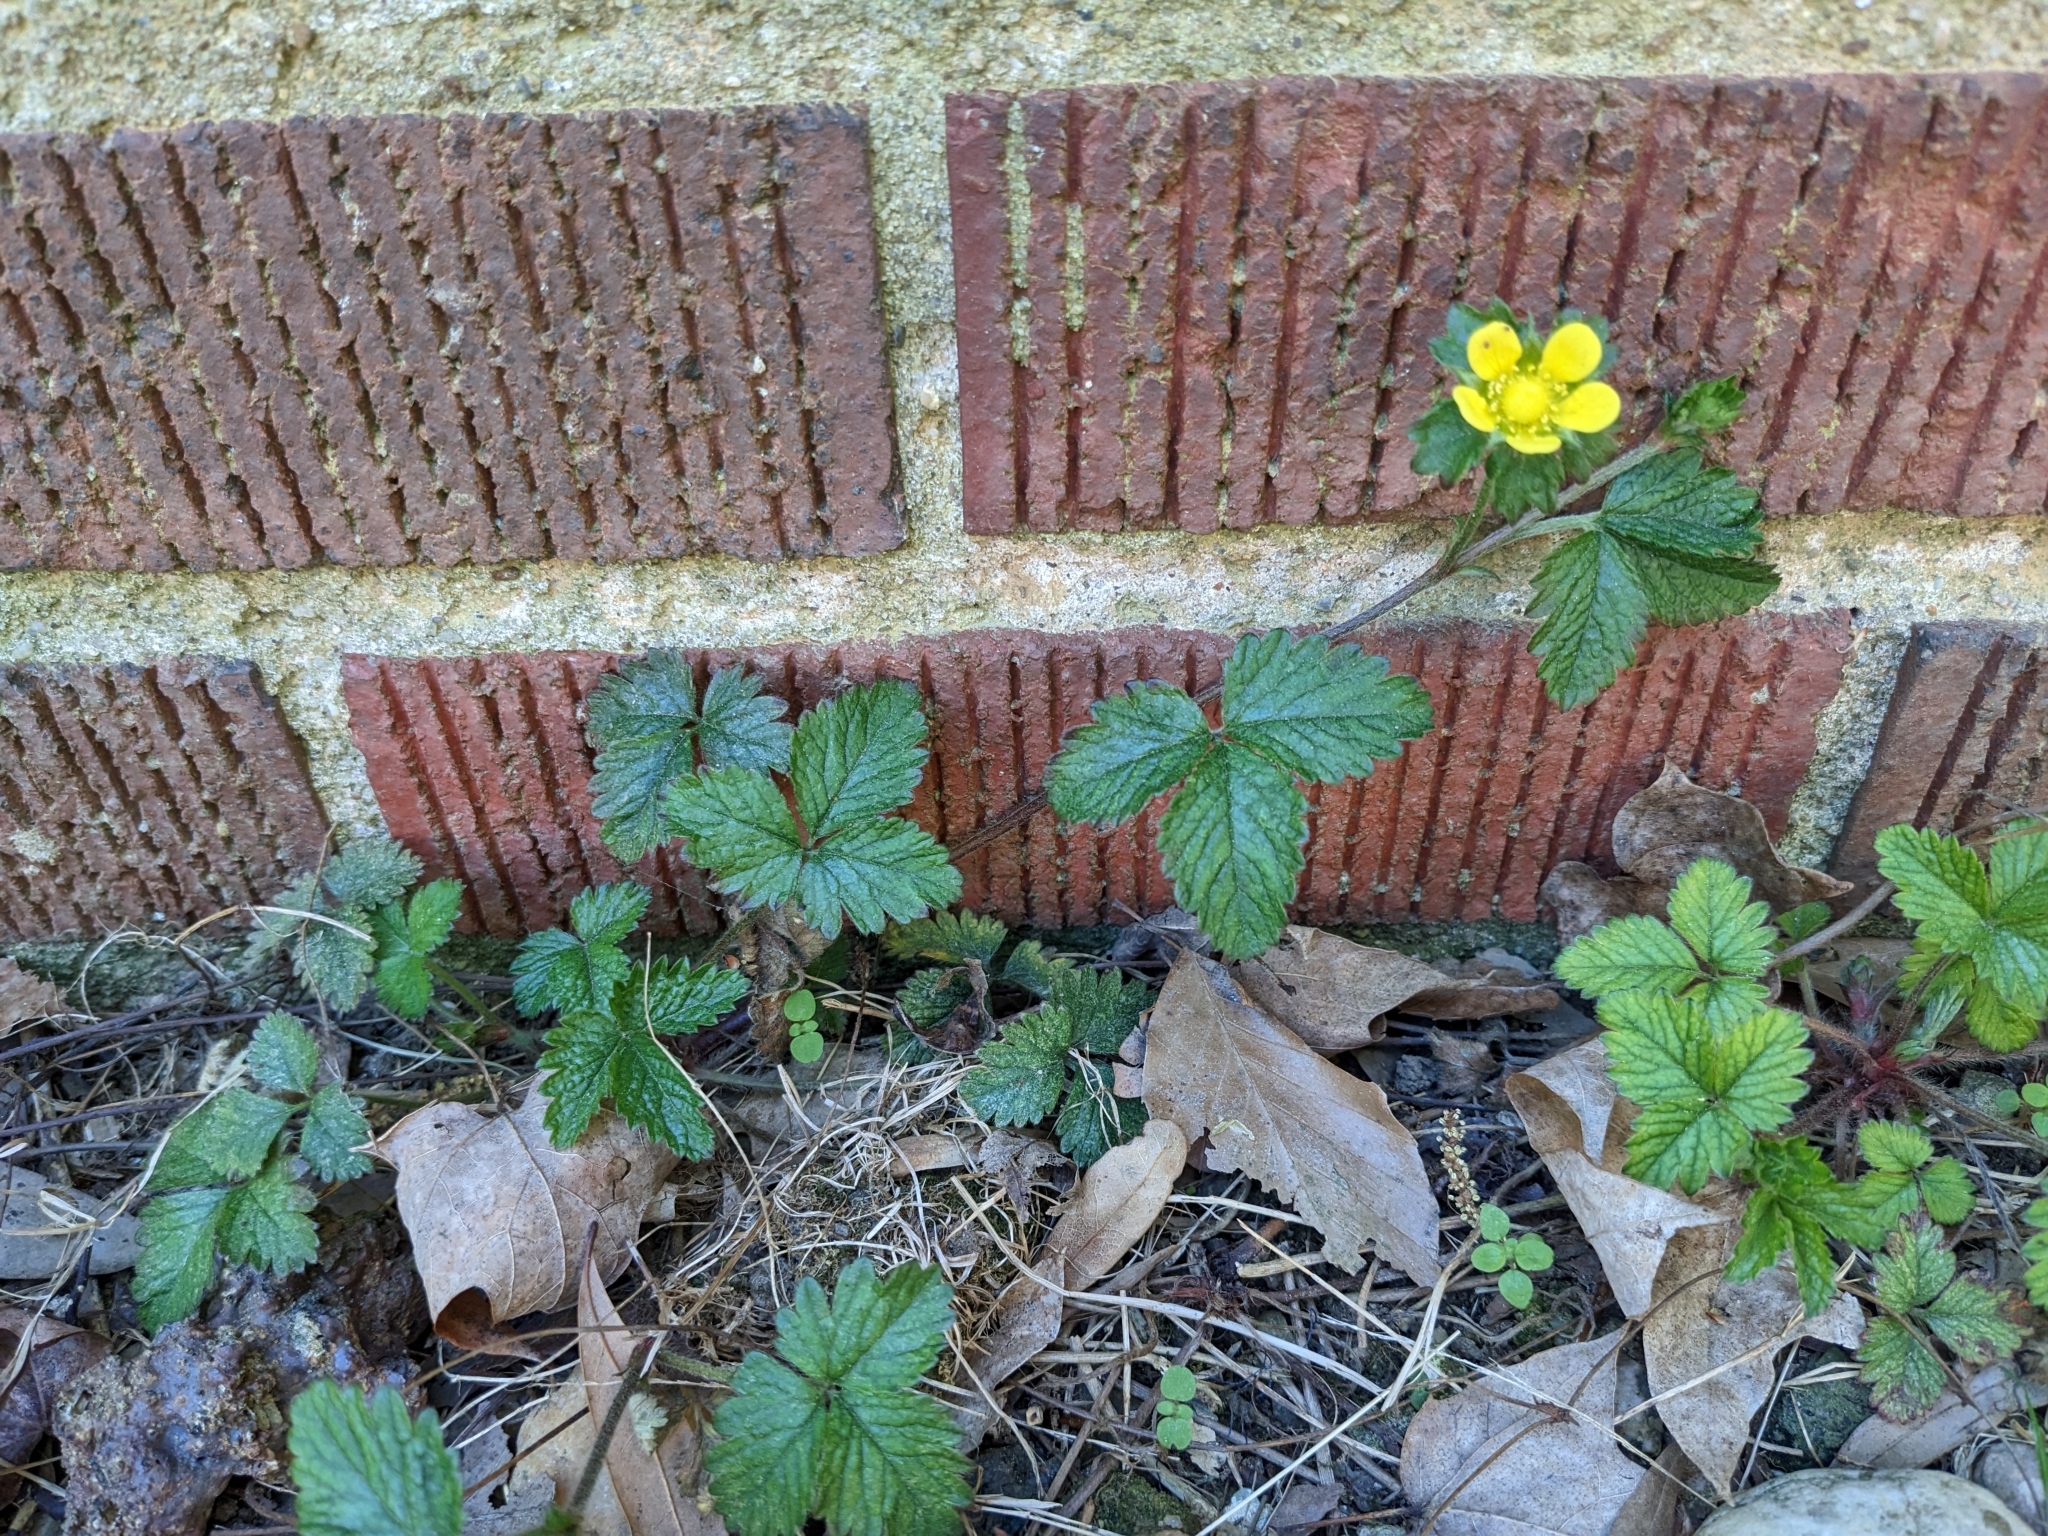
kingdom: Plantae
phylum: Tracheophyta
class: Magnoliopsida
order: Rosales
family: Rosaceae
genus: Potentilla
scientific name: Potentilla indica
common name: Yellow-flowered strawberry
